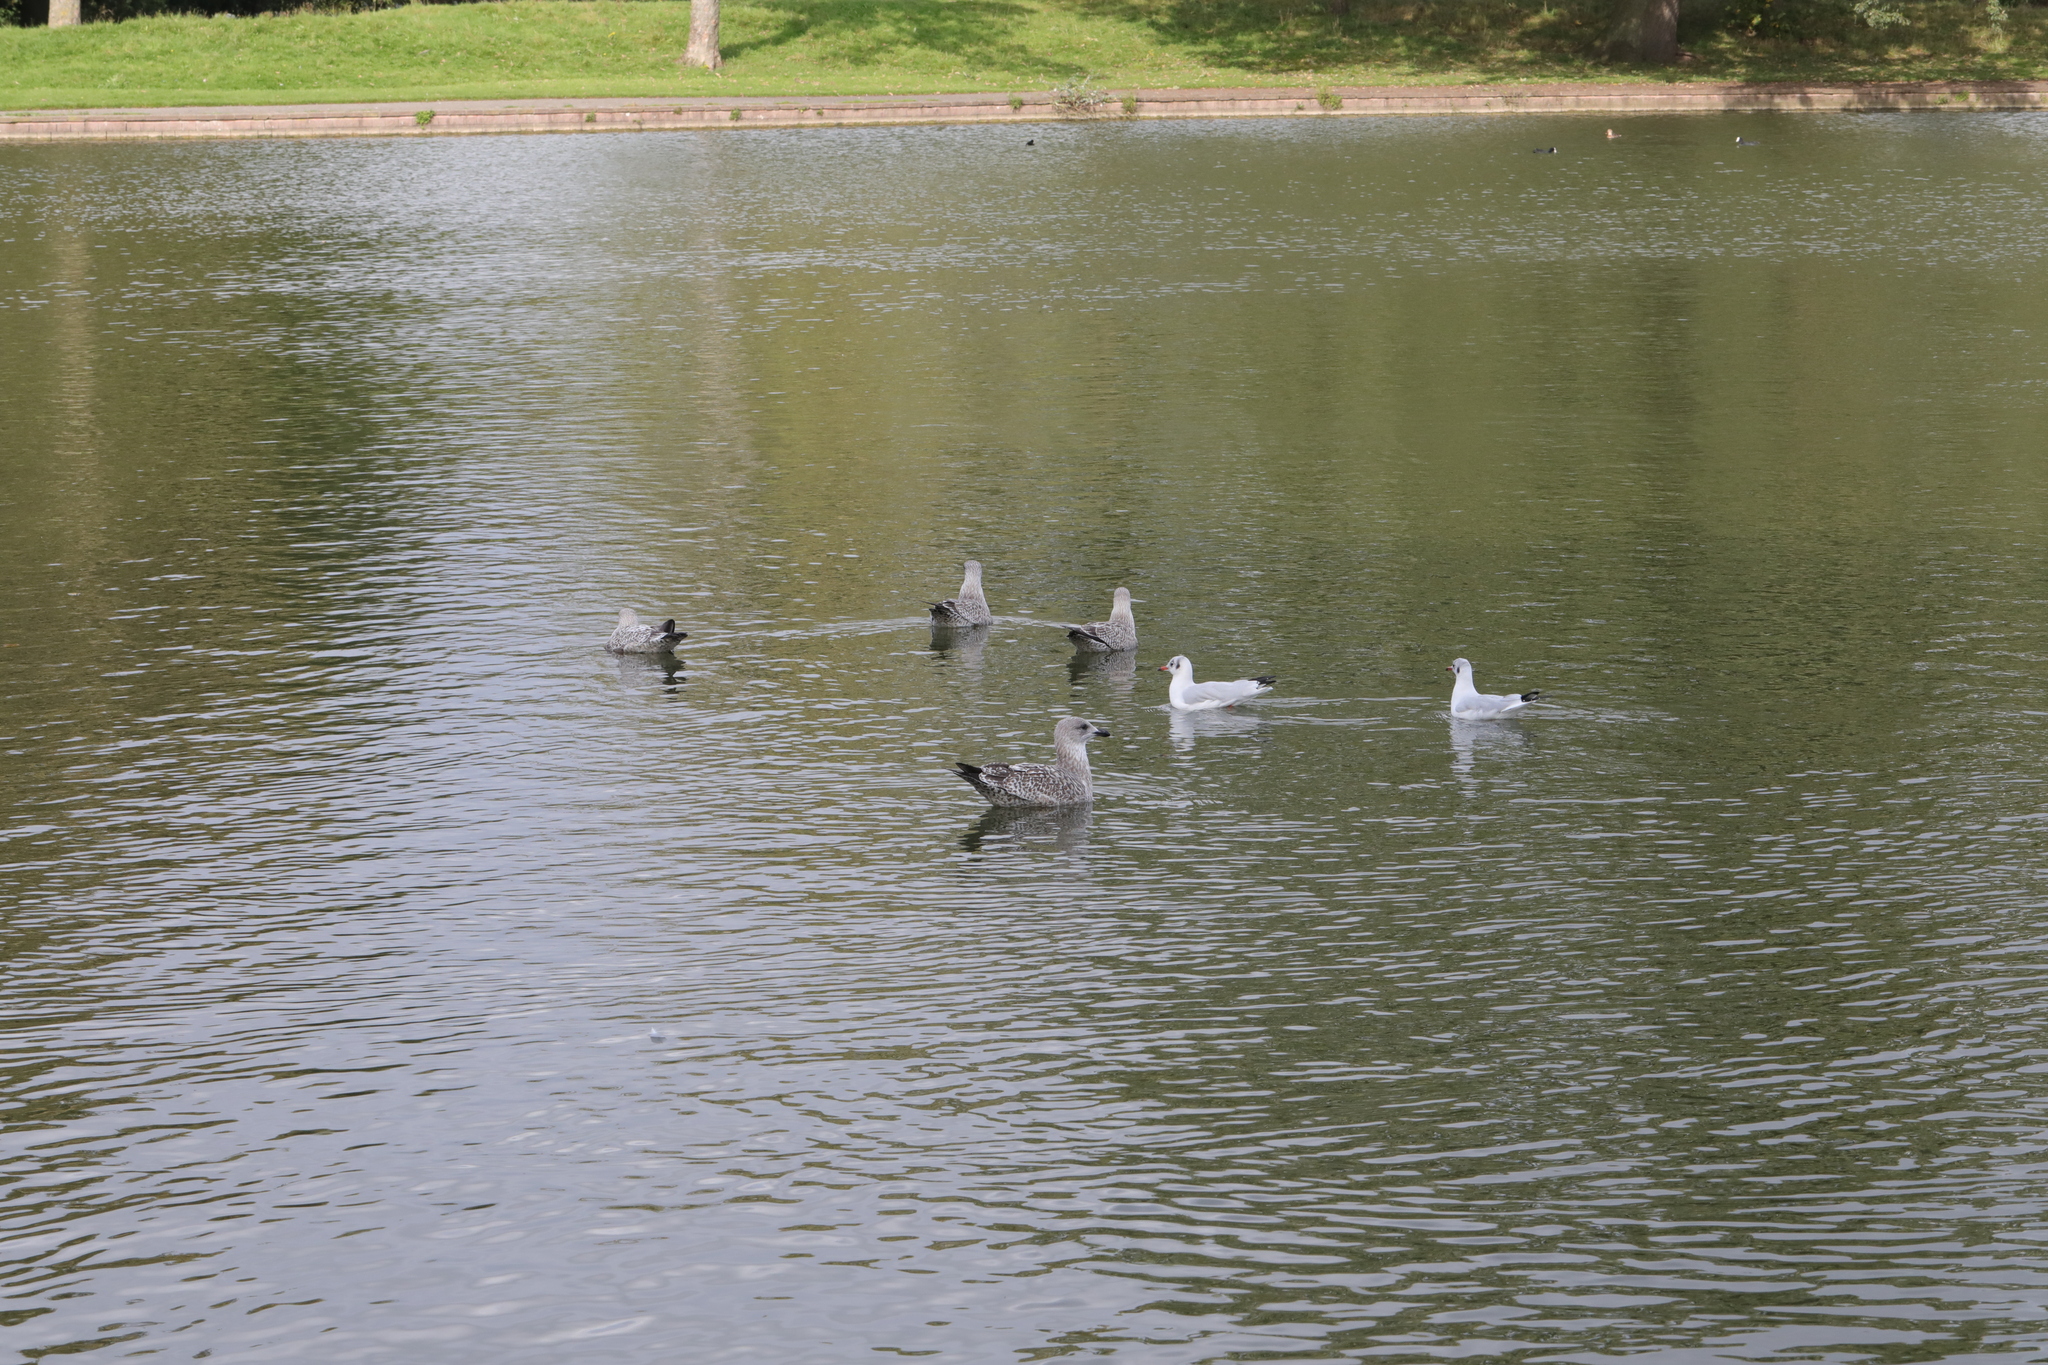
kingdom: Animalia
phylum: Chordata
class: Aves
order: Charadriiformes
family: Laridae
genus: Larus
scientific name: Larus argentatus
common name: Herring gull
